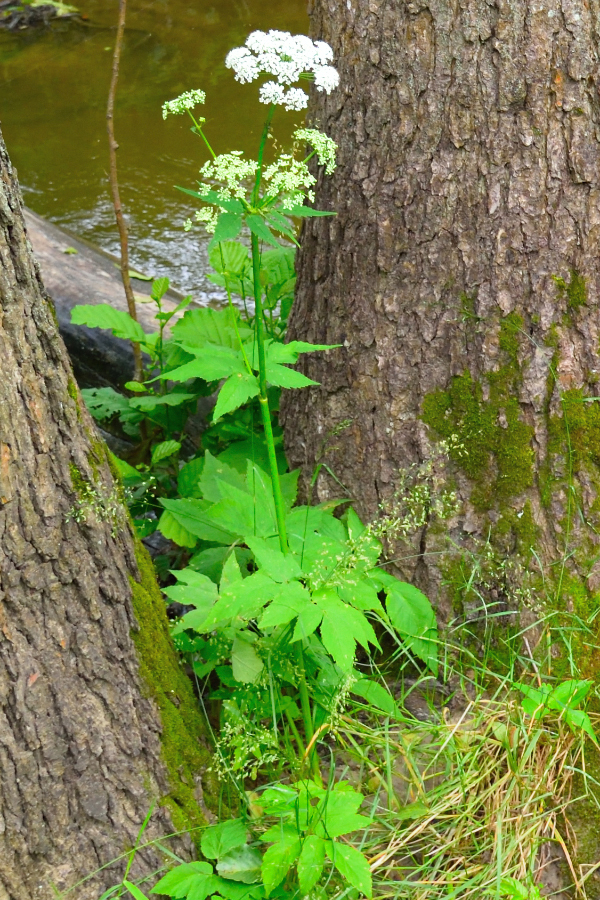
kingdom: Plantae
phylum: Tracheophyta
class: Magnoliopsida
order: Apiales
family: Apiaceae
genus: Aegopodium
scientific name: Aegopodium podagraria
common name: Ground-elder
